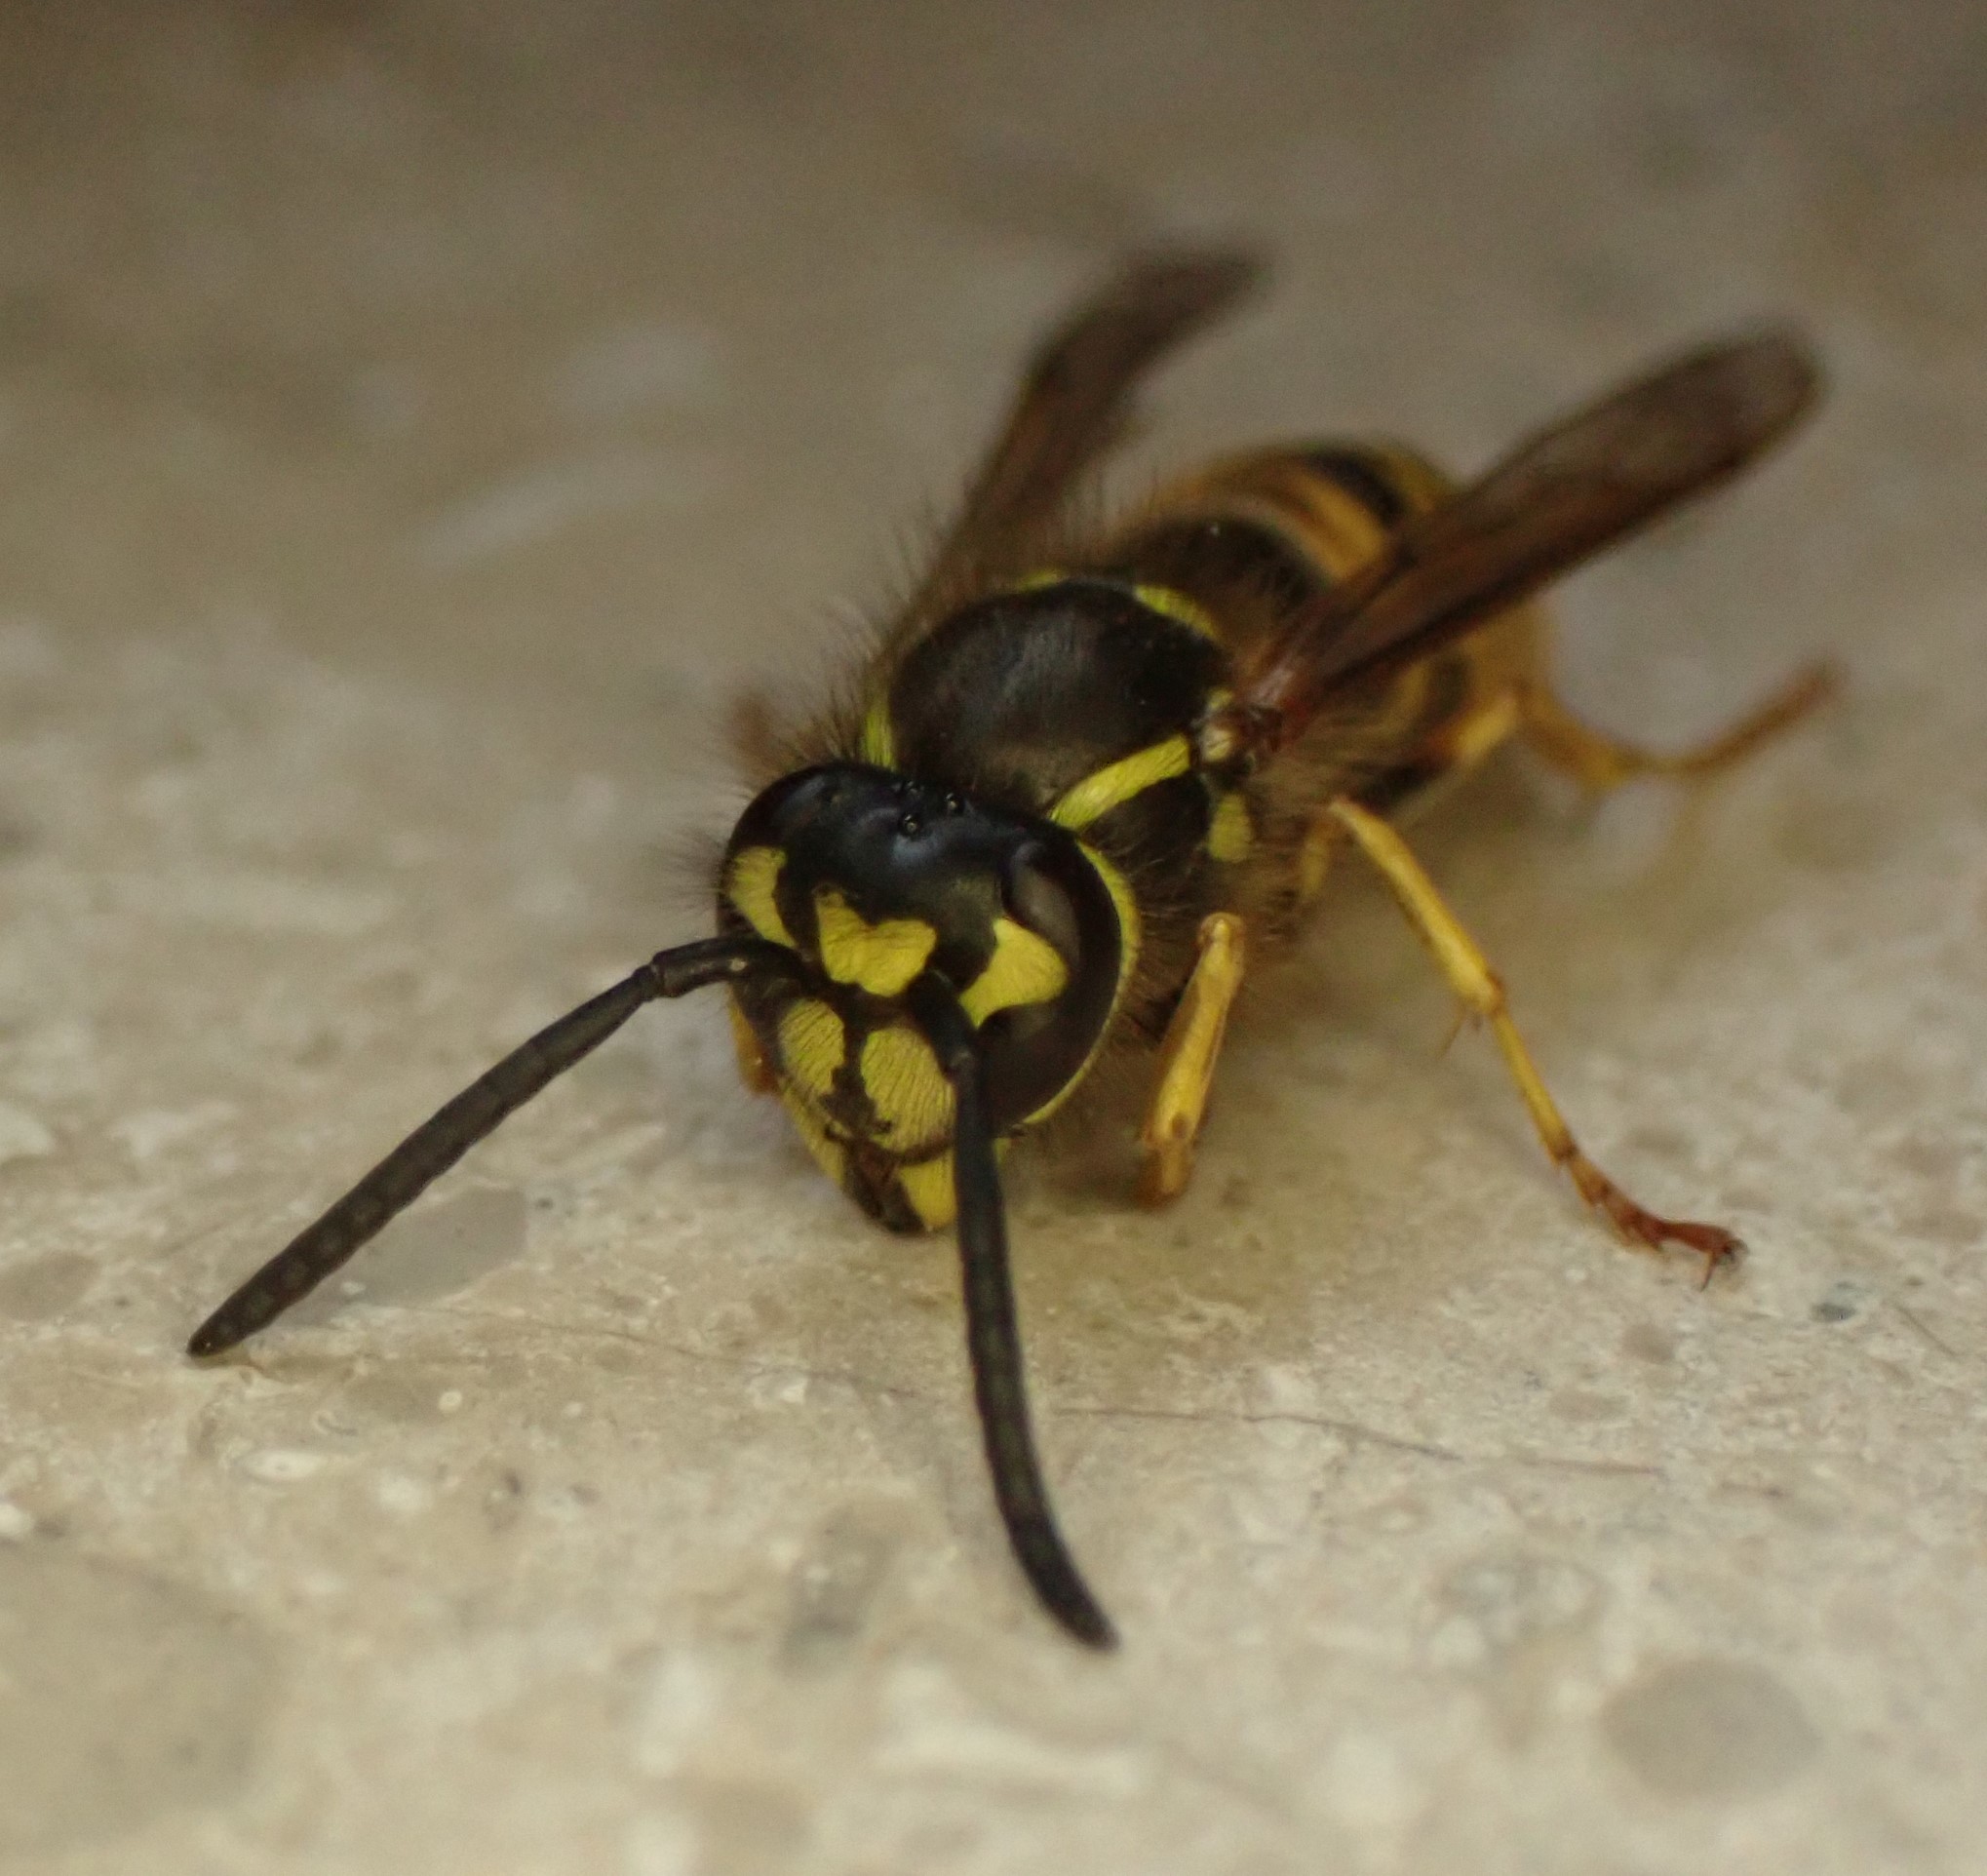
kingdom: Animalia
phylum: Arthropoda
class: Insecta
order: Hymenoptera
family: Vespidae
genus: Vespula
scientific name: Vespula vulgaris
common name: Common wasp
